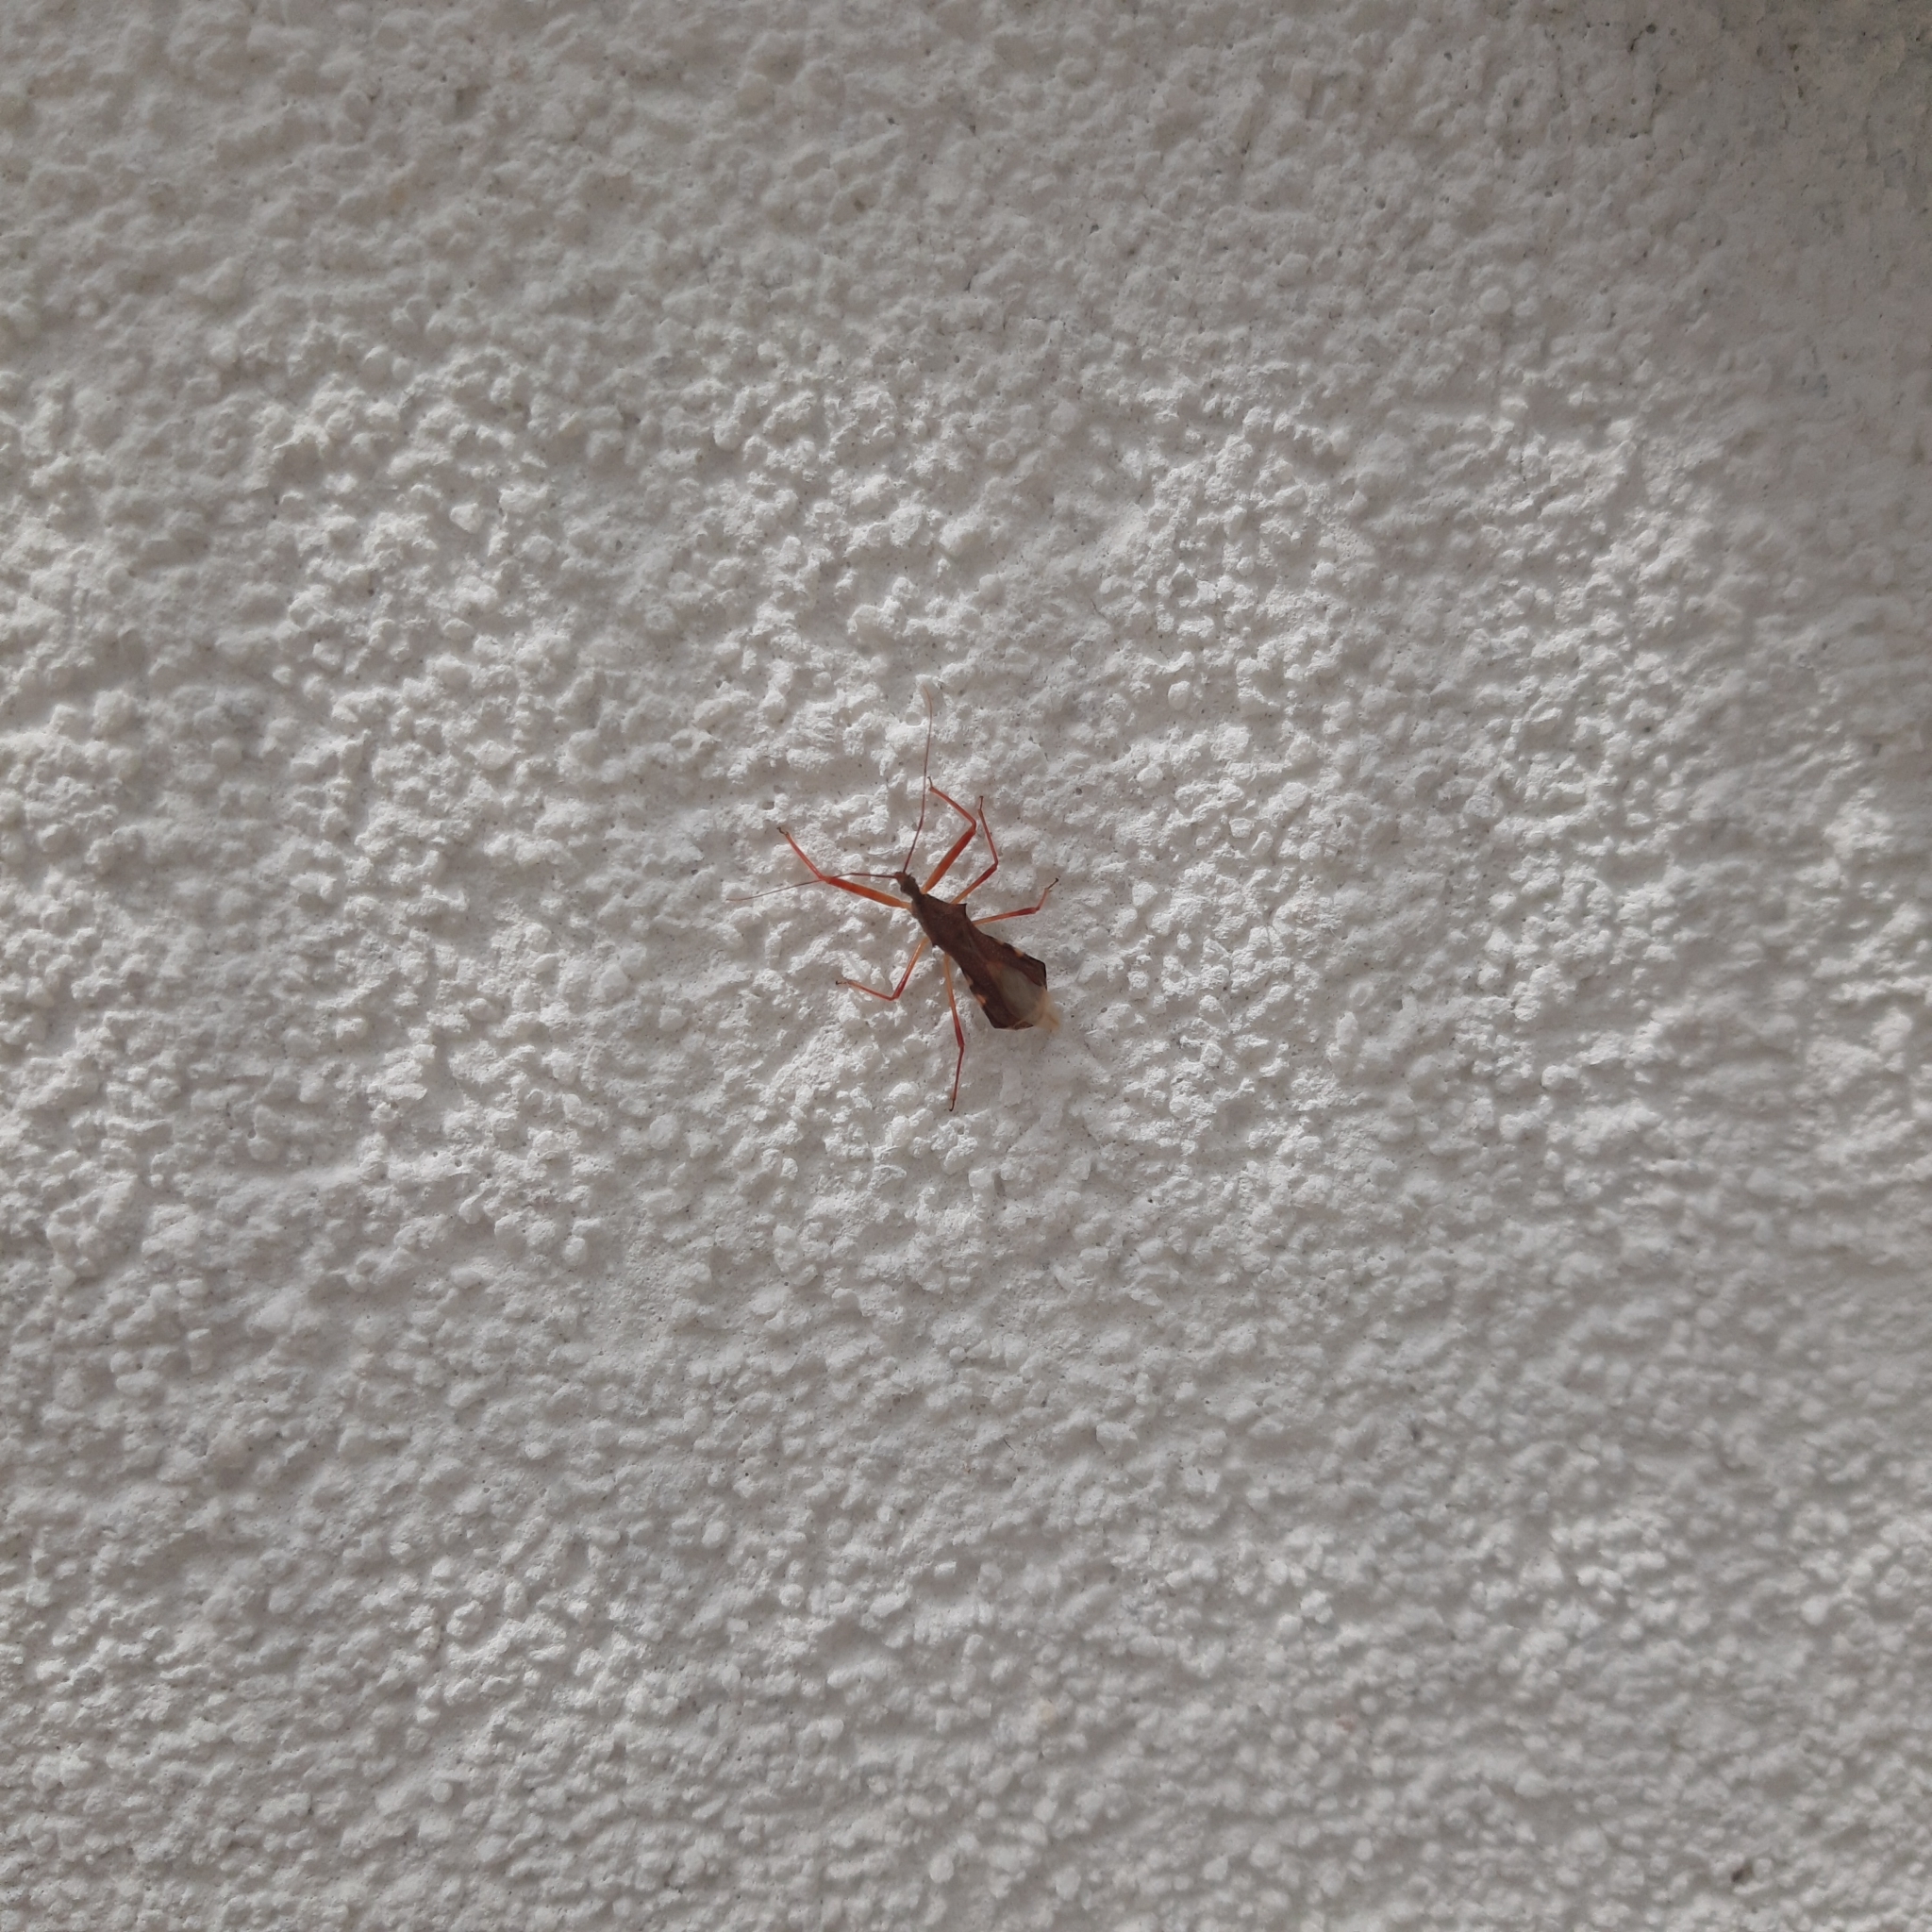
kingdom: Animalia
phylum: Arthropoda
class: Insecta
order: Hemiptera
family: Reduviidae
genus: Nagusta
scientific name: Nagusta goedelii
